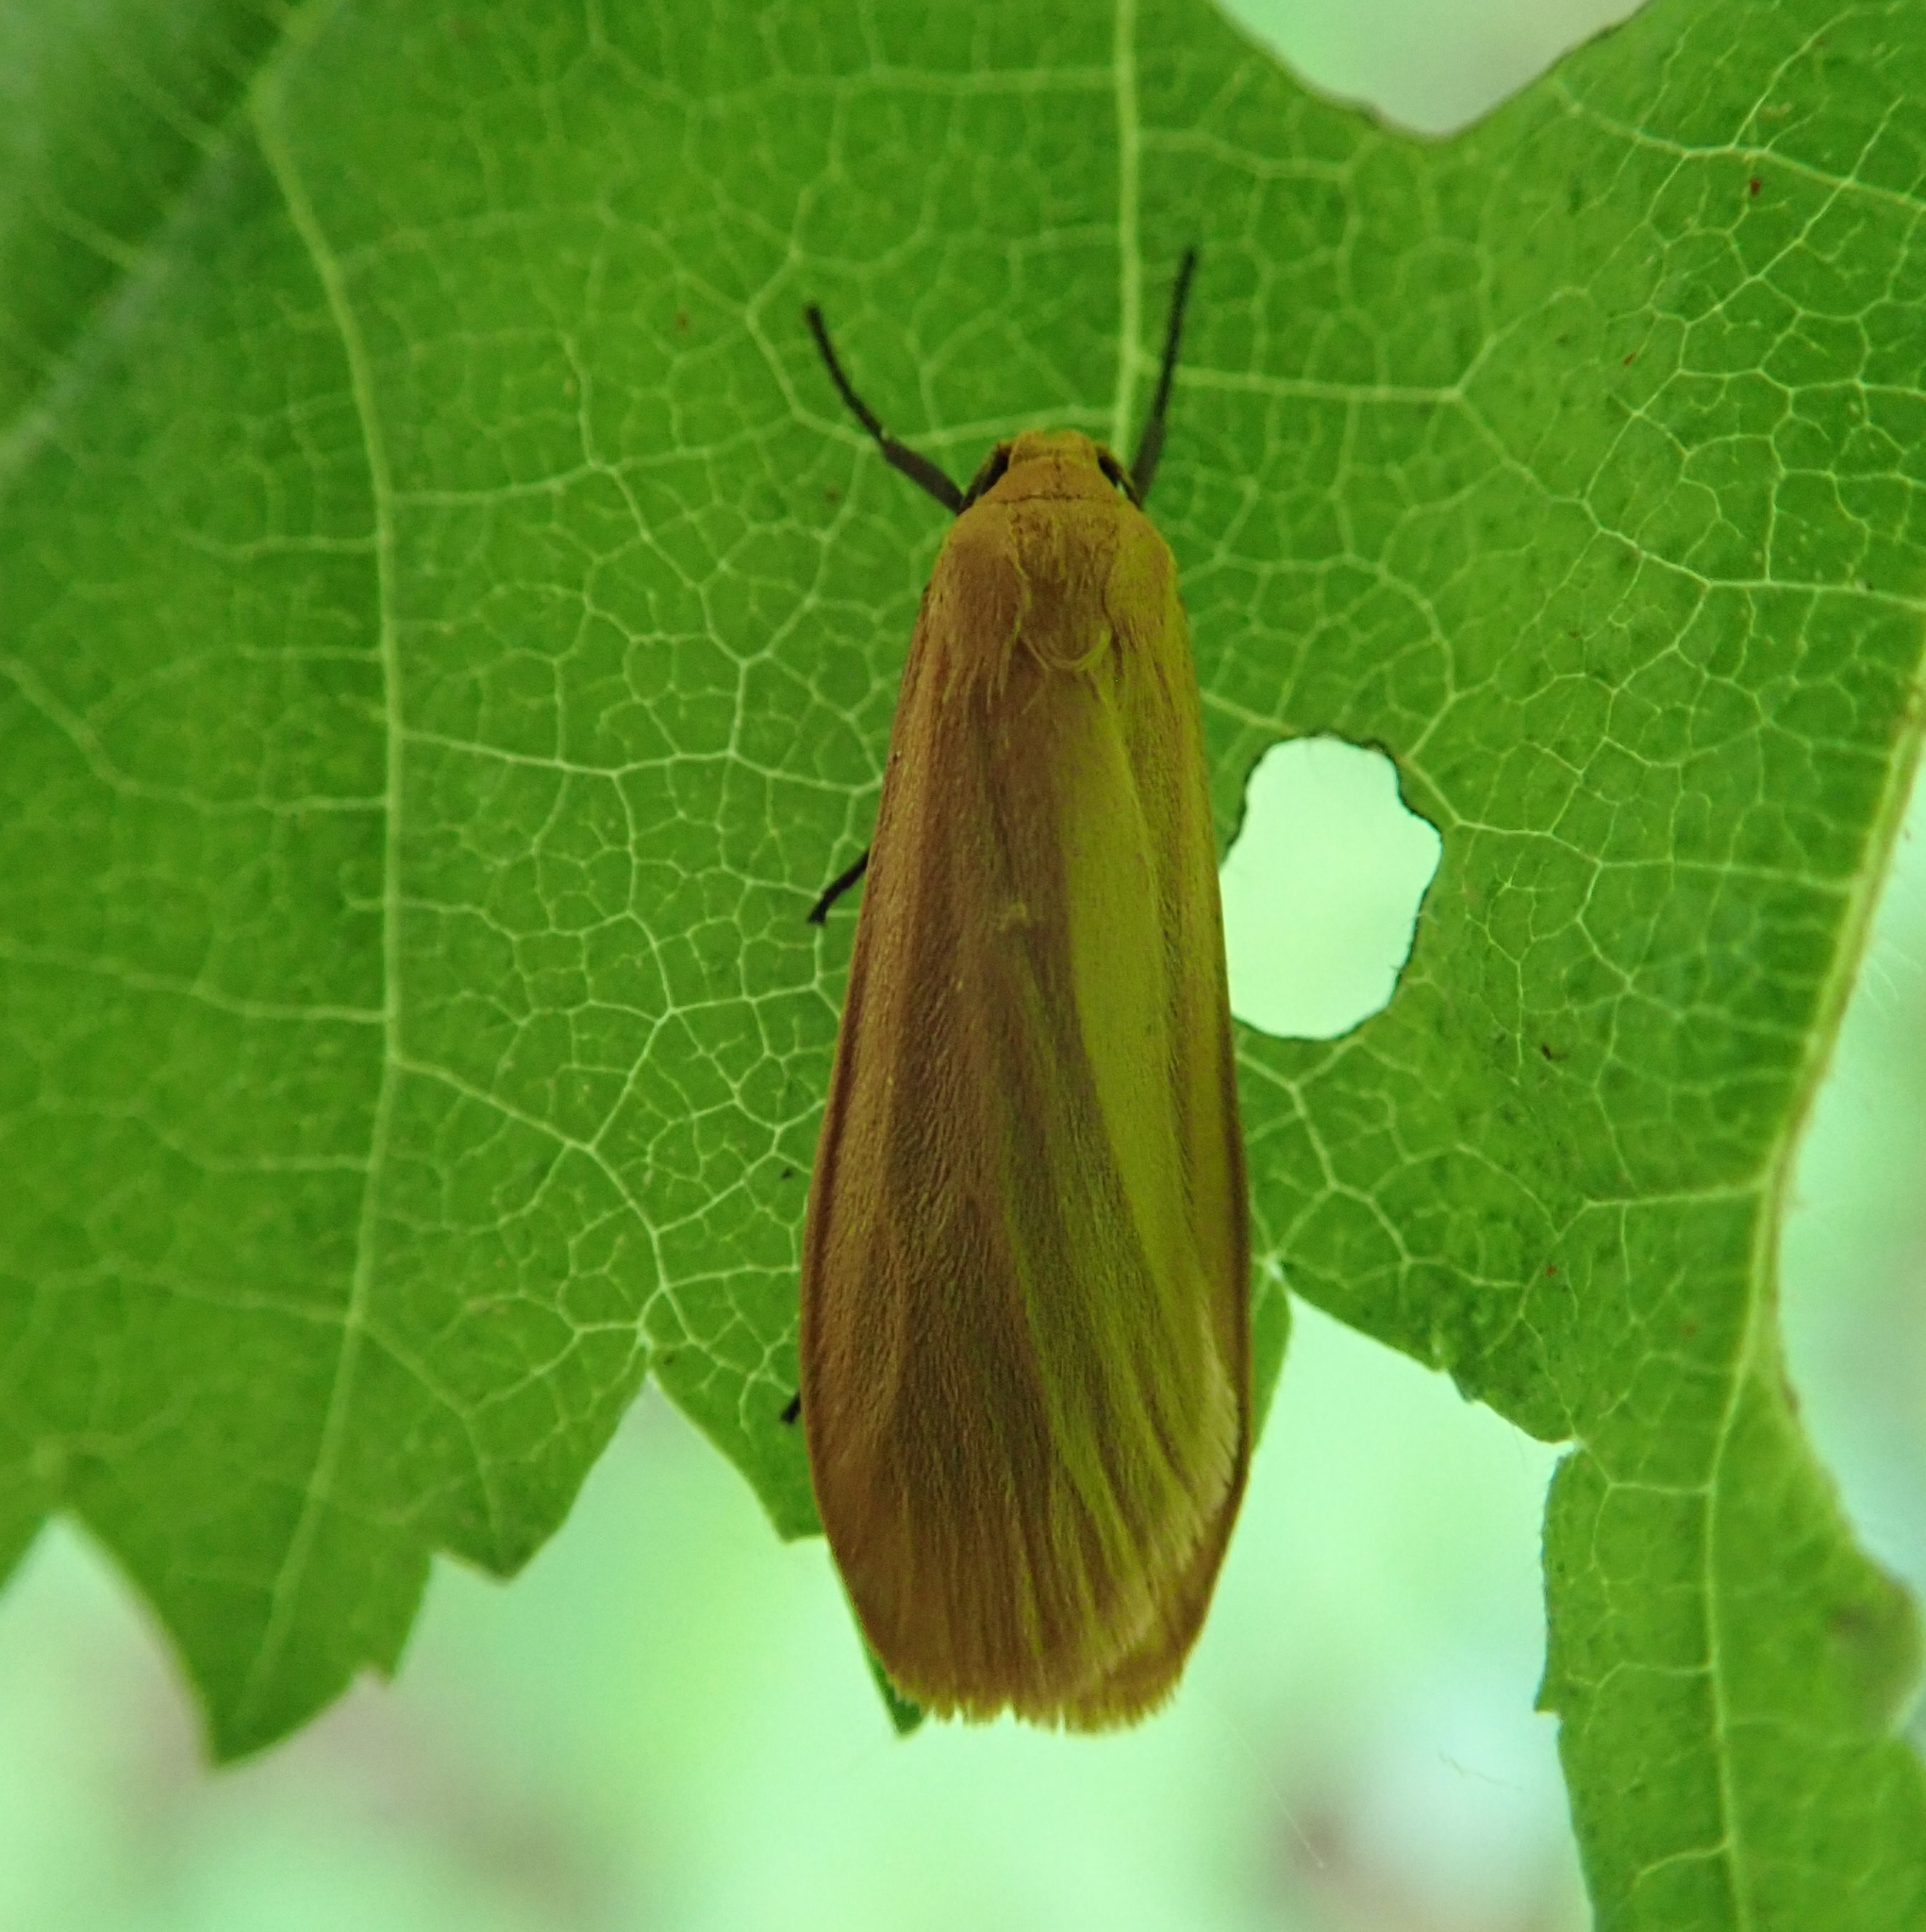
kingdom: Animalia
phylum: Arthropoda
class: Insecta
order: Lepidoptera
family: Erebidae
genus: Wittia
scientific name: Wittia sororcula
